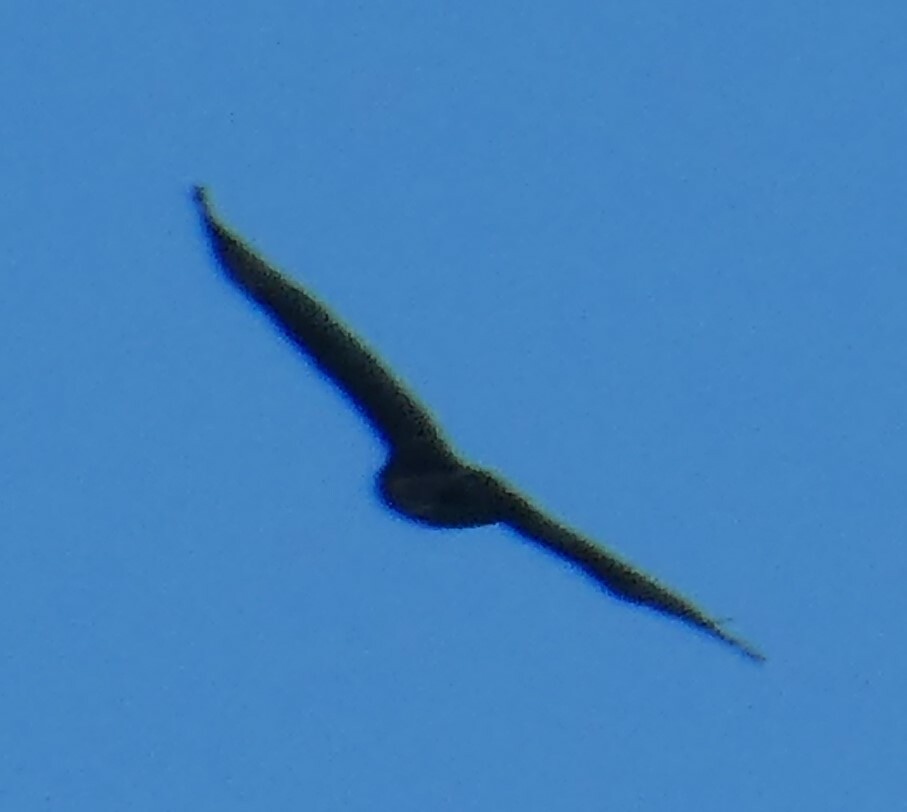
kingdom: Animalia
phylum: Chordata
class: Aves
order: Accipitriformes
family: Accipitridae
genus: Buteo
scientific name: Buteo buteo
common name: Common buzzard
